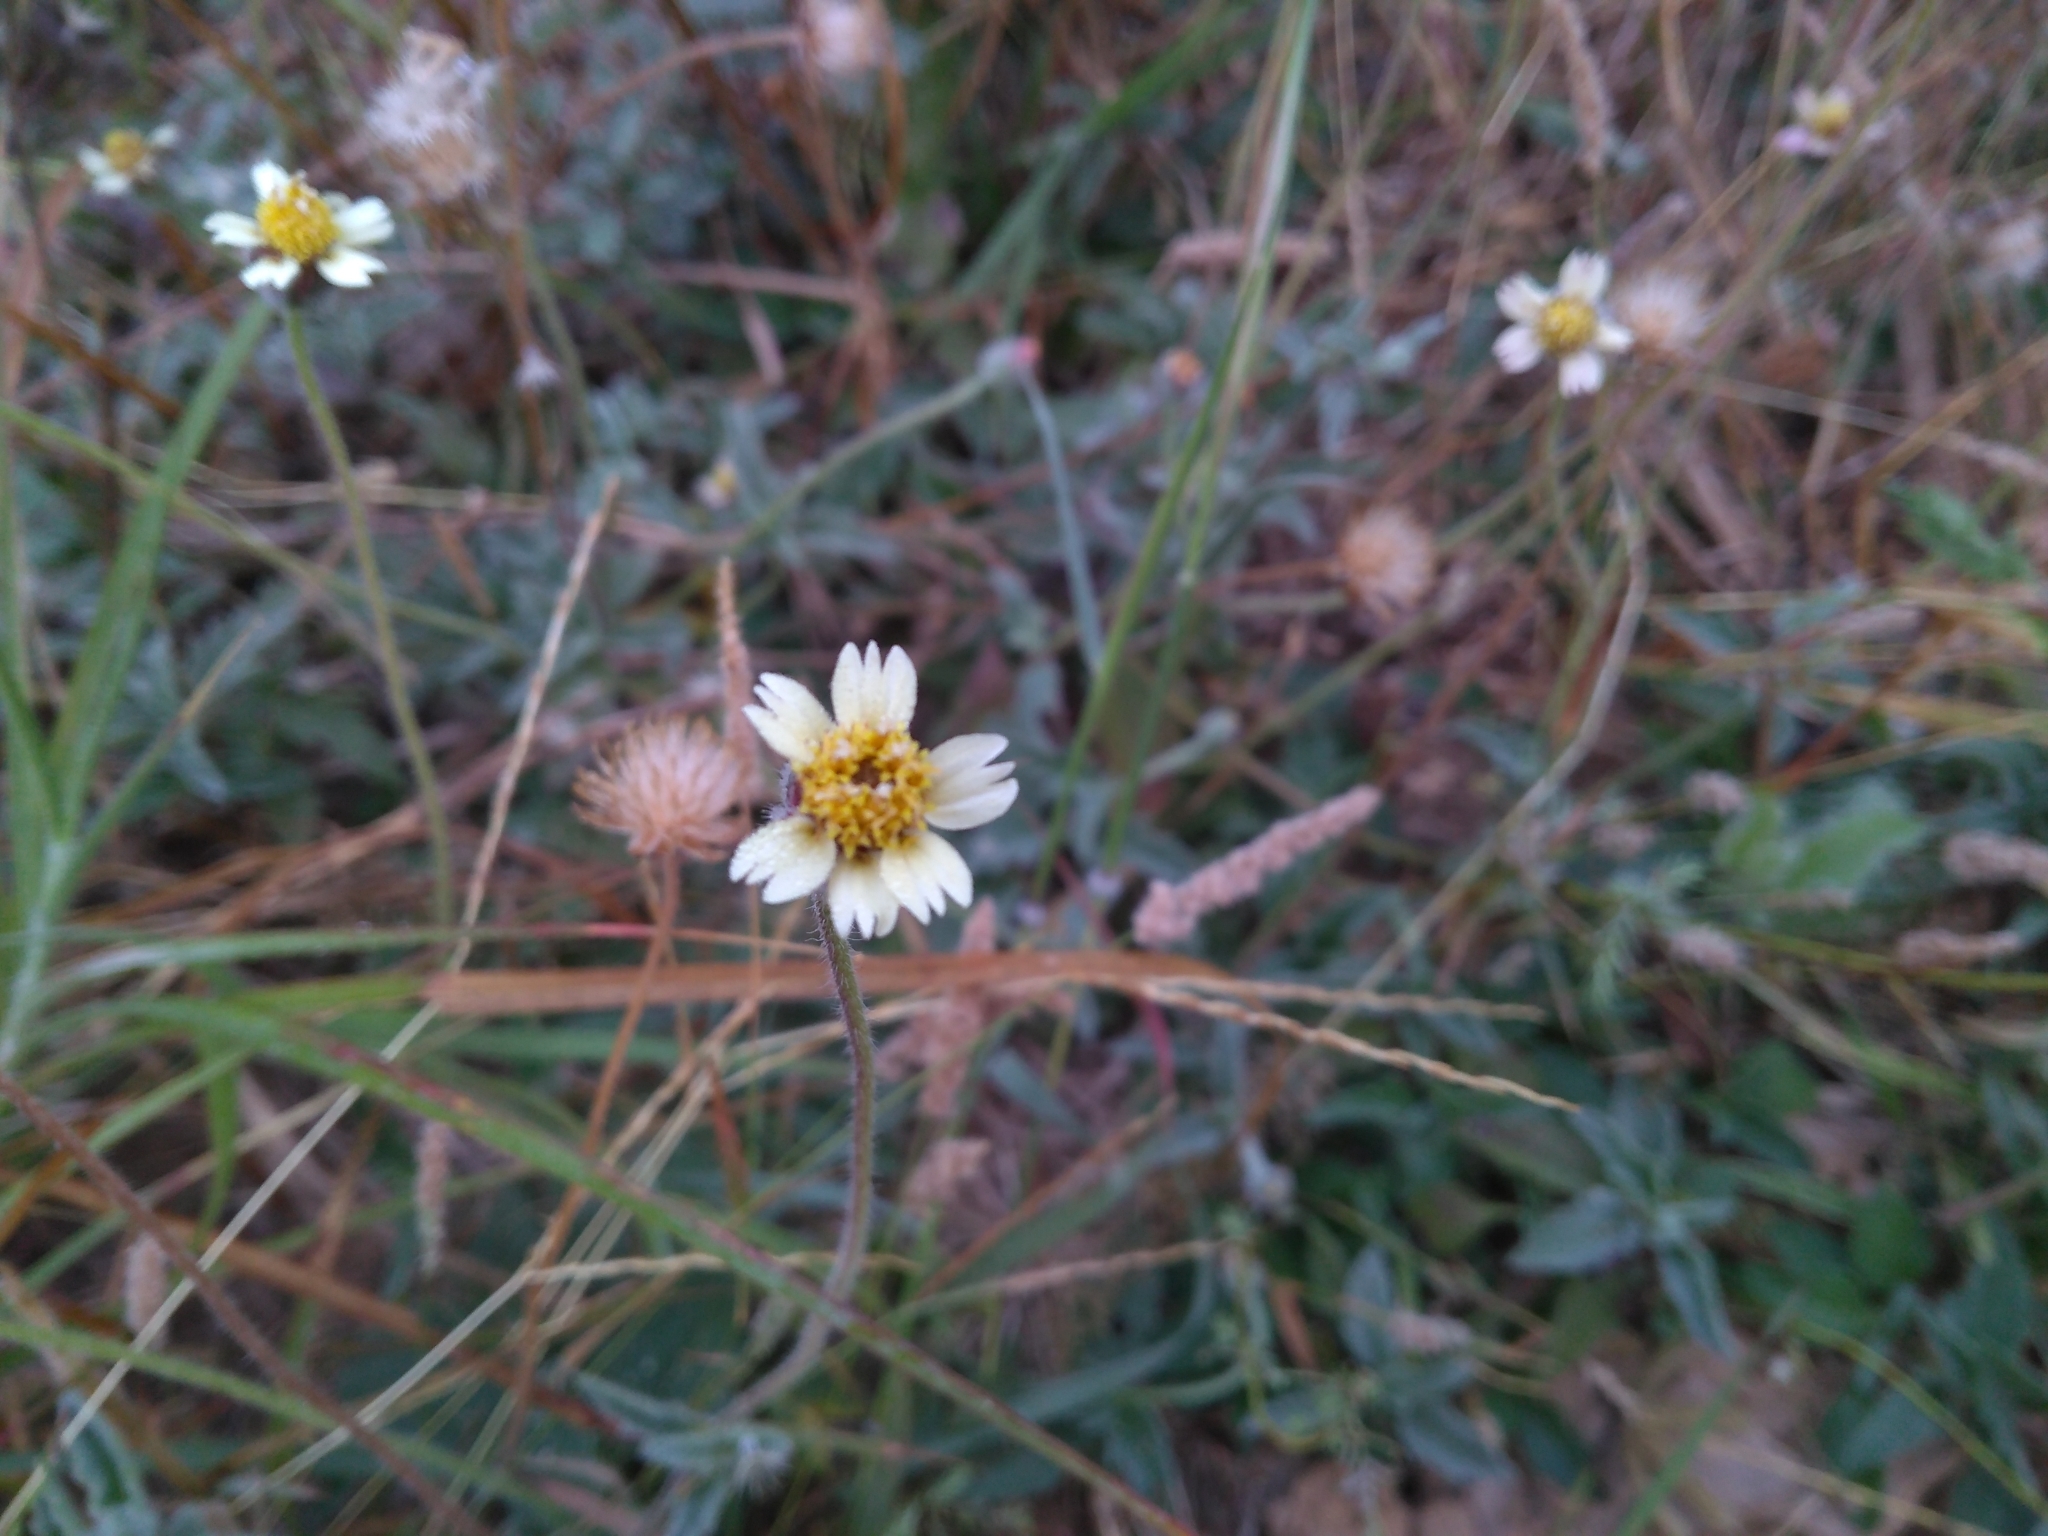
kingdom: Plantae
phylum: Tracheophyta
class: Magnoliopsida
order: Asterales
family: Asteraceae
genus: Tridax
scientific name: Tridax procumbens
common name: Coatbuttons
